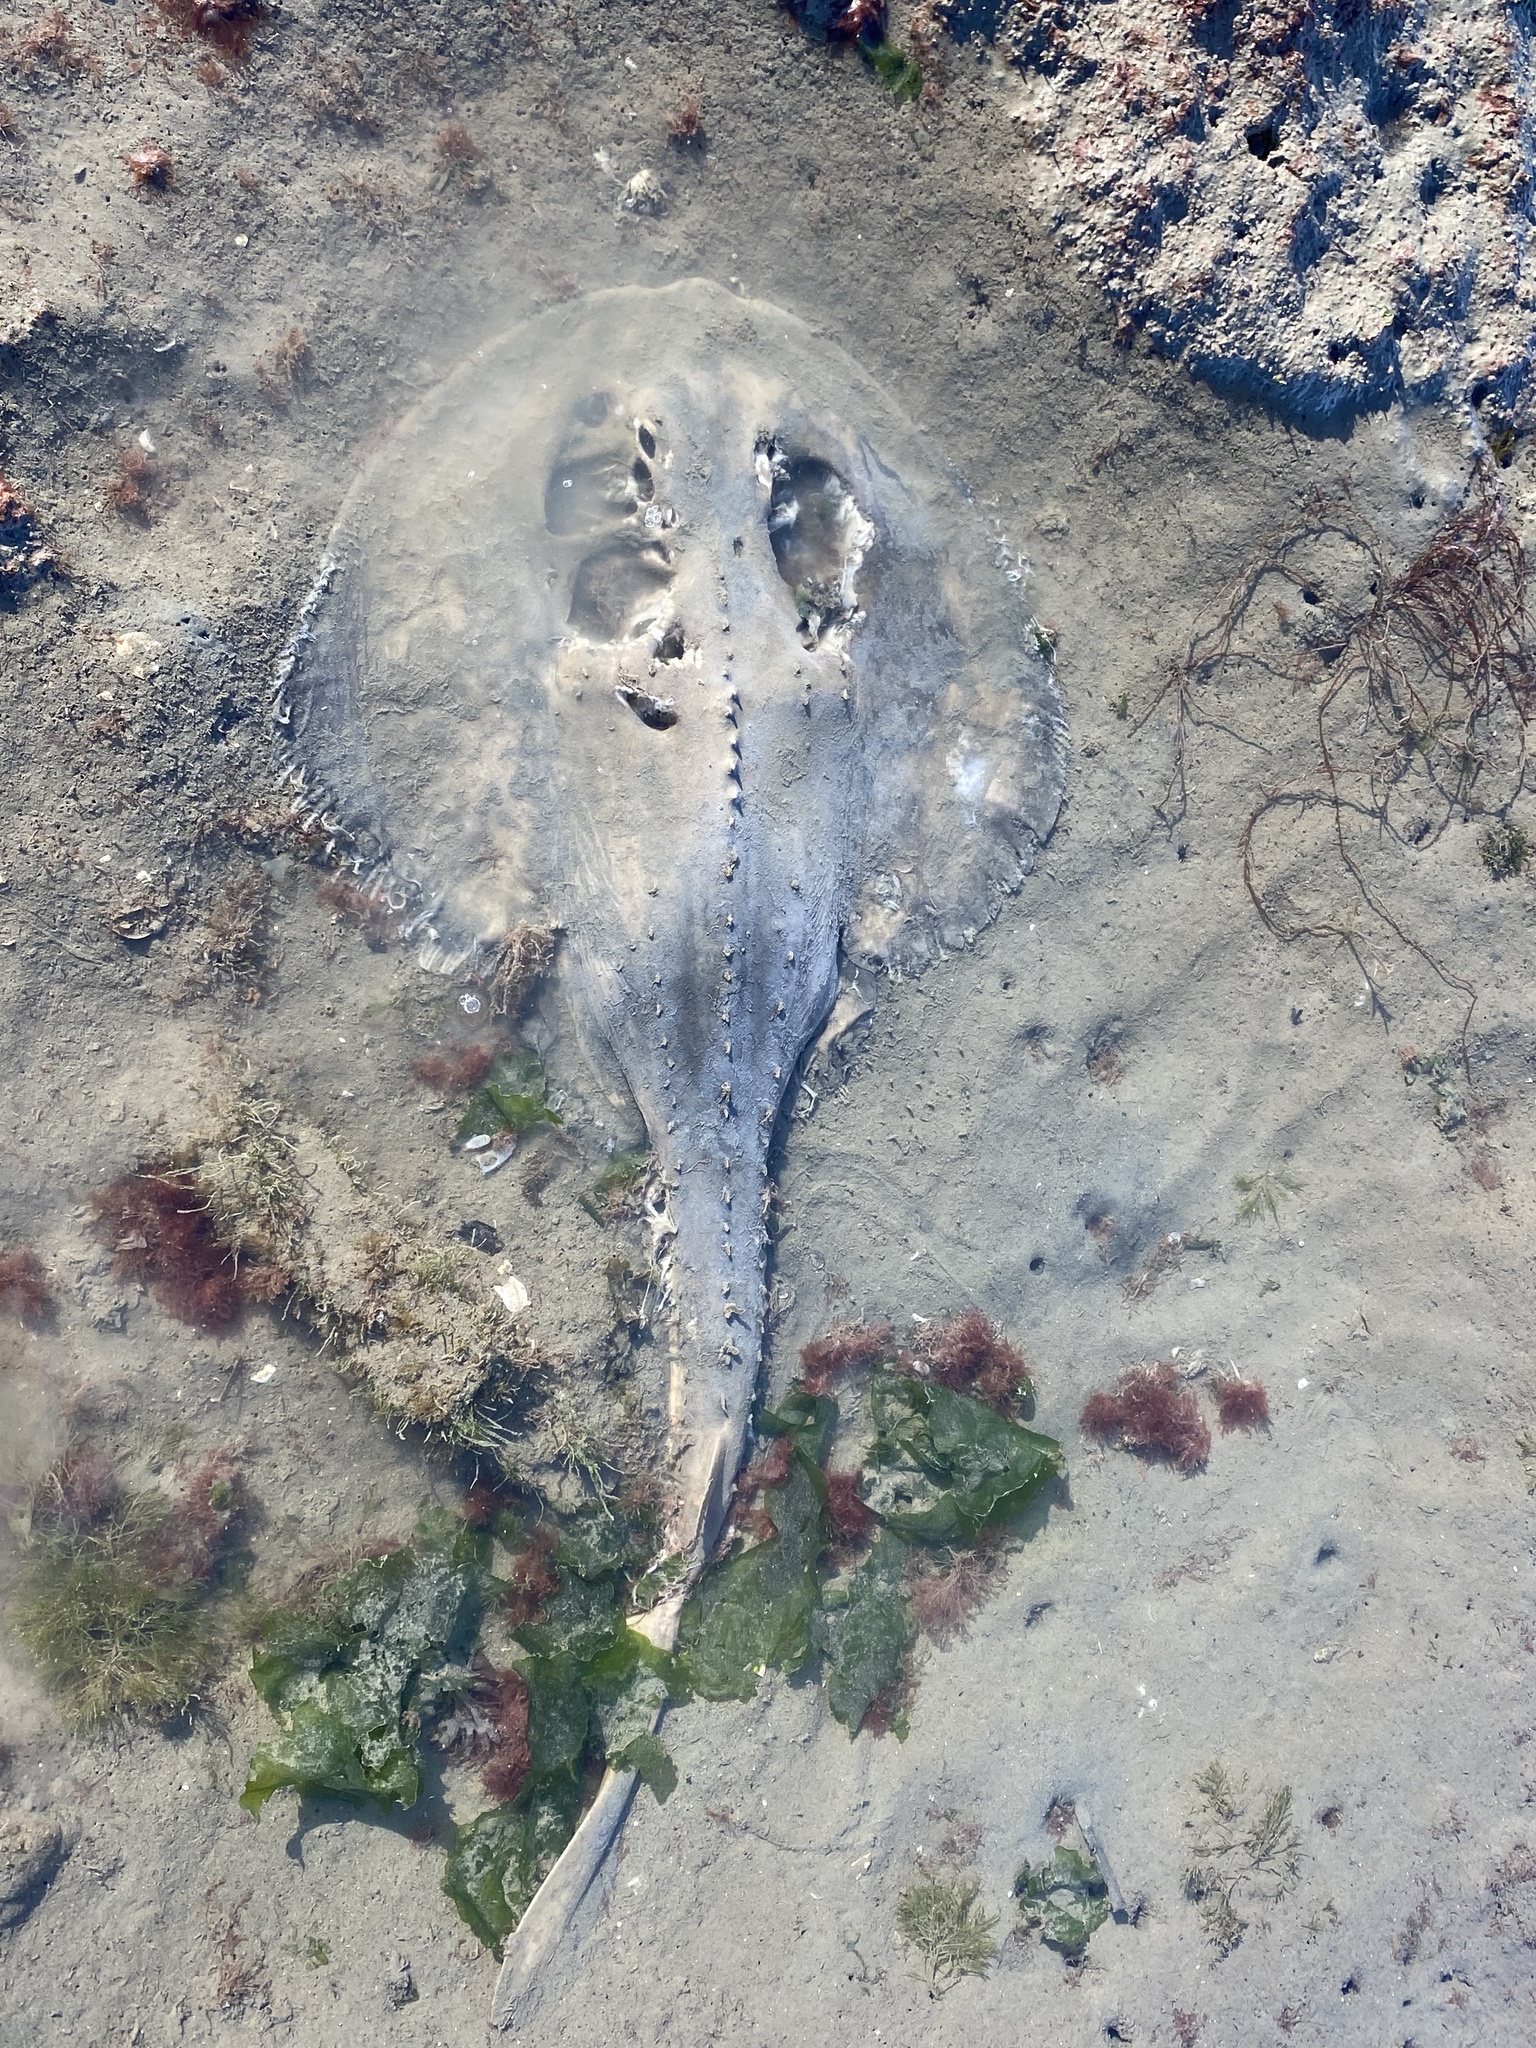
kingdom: Animalia
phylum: Chordata
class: Elasmobranchii
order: Rhinopristiformes
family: Rhinobatidae
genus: Platyrhinoidis
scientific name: Platyrhinoidis triseriata
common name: Thornback
